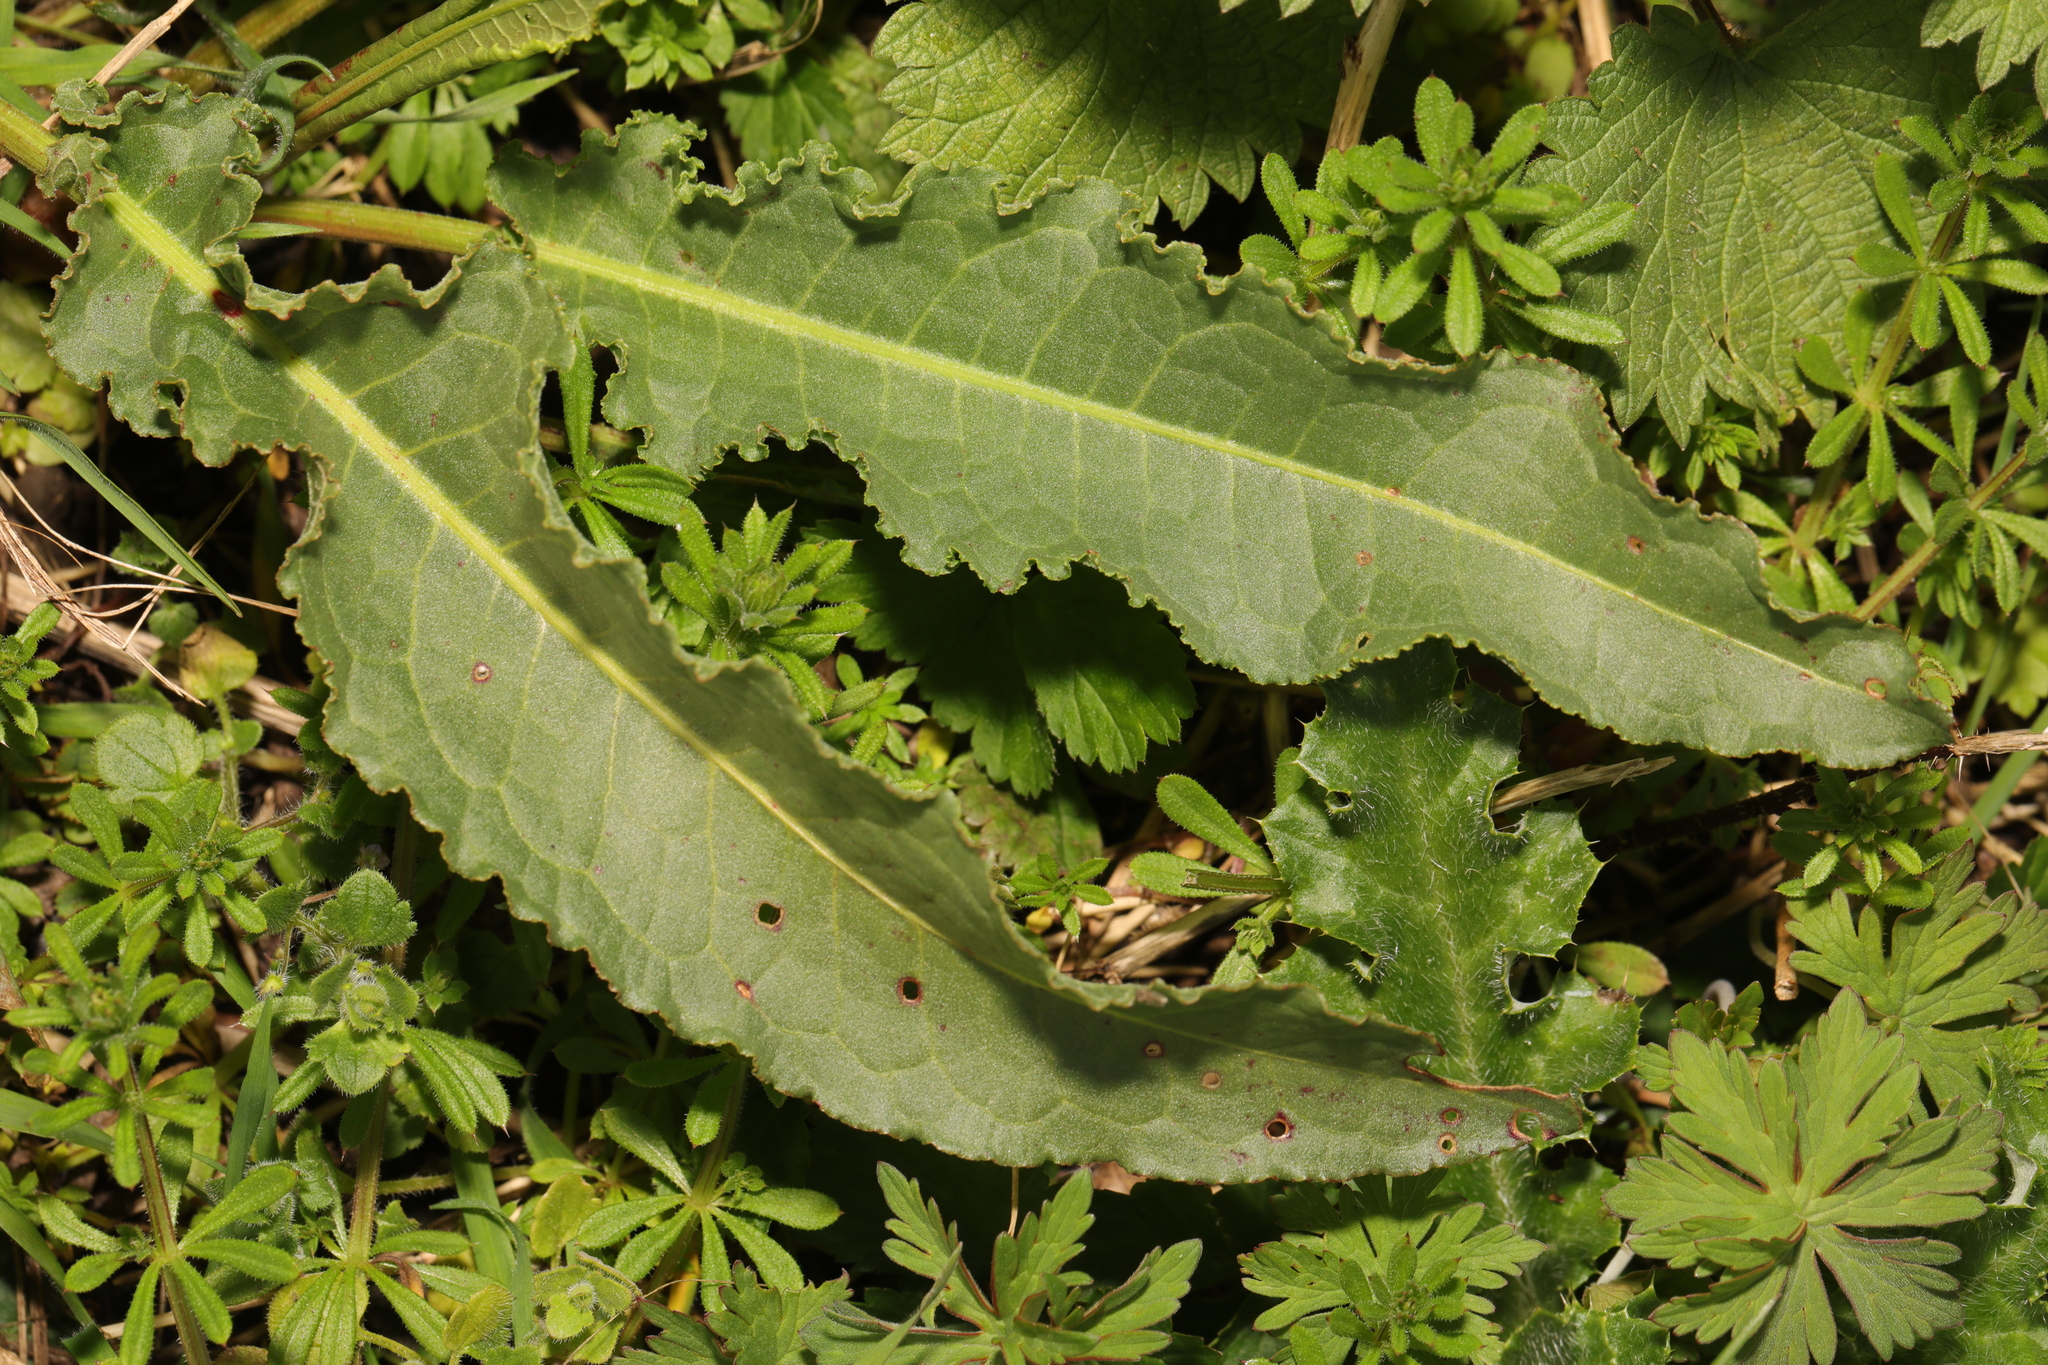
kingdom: Plantae
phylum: Tracheophyta
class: Magnoliopsida
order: Caryophyllales
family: Polygonaceae
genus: Rumex
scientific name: Rumex crispus
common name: Curled dock
